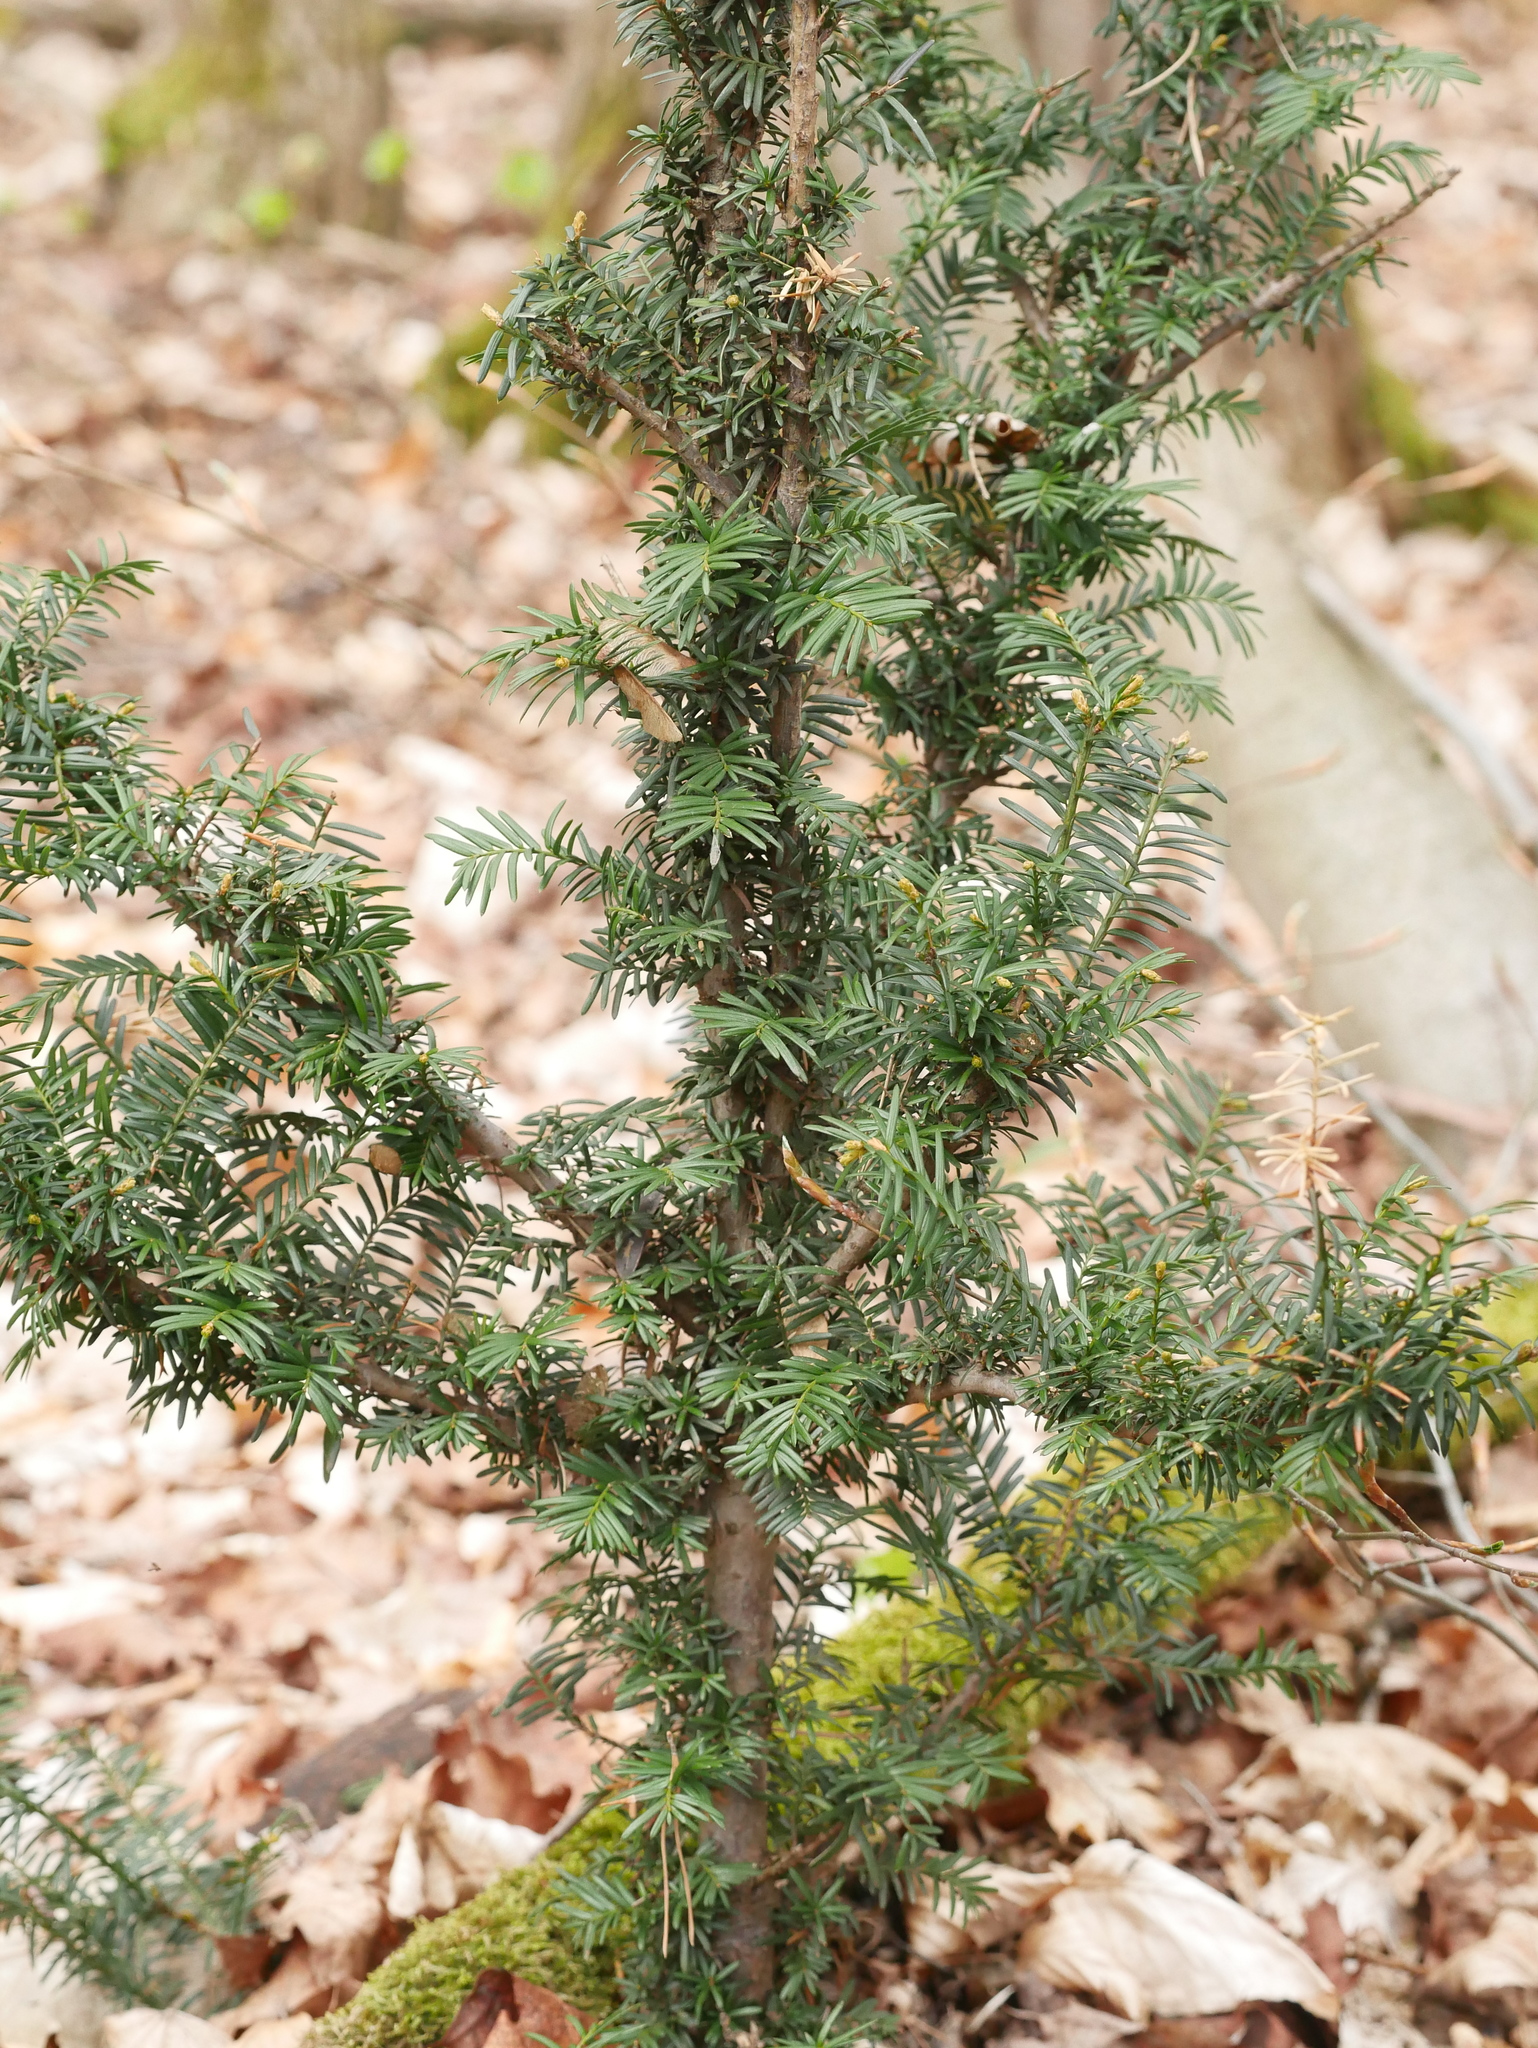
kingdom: Plantae
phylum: Tracheophyta
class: Pinopsida
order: Pinales
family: Taxaceae
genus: Taxus
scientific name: Taxus baccata
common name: Yew
